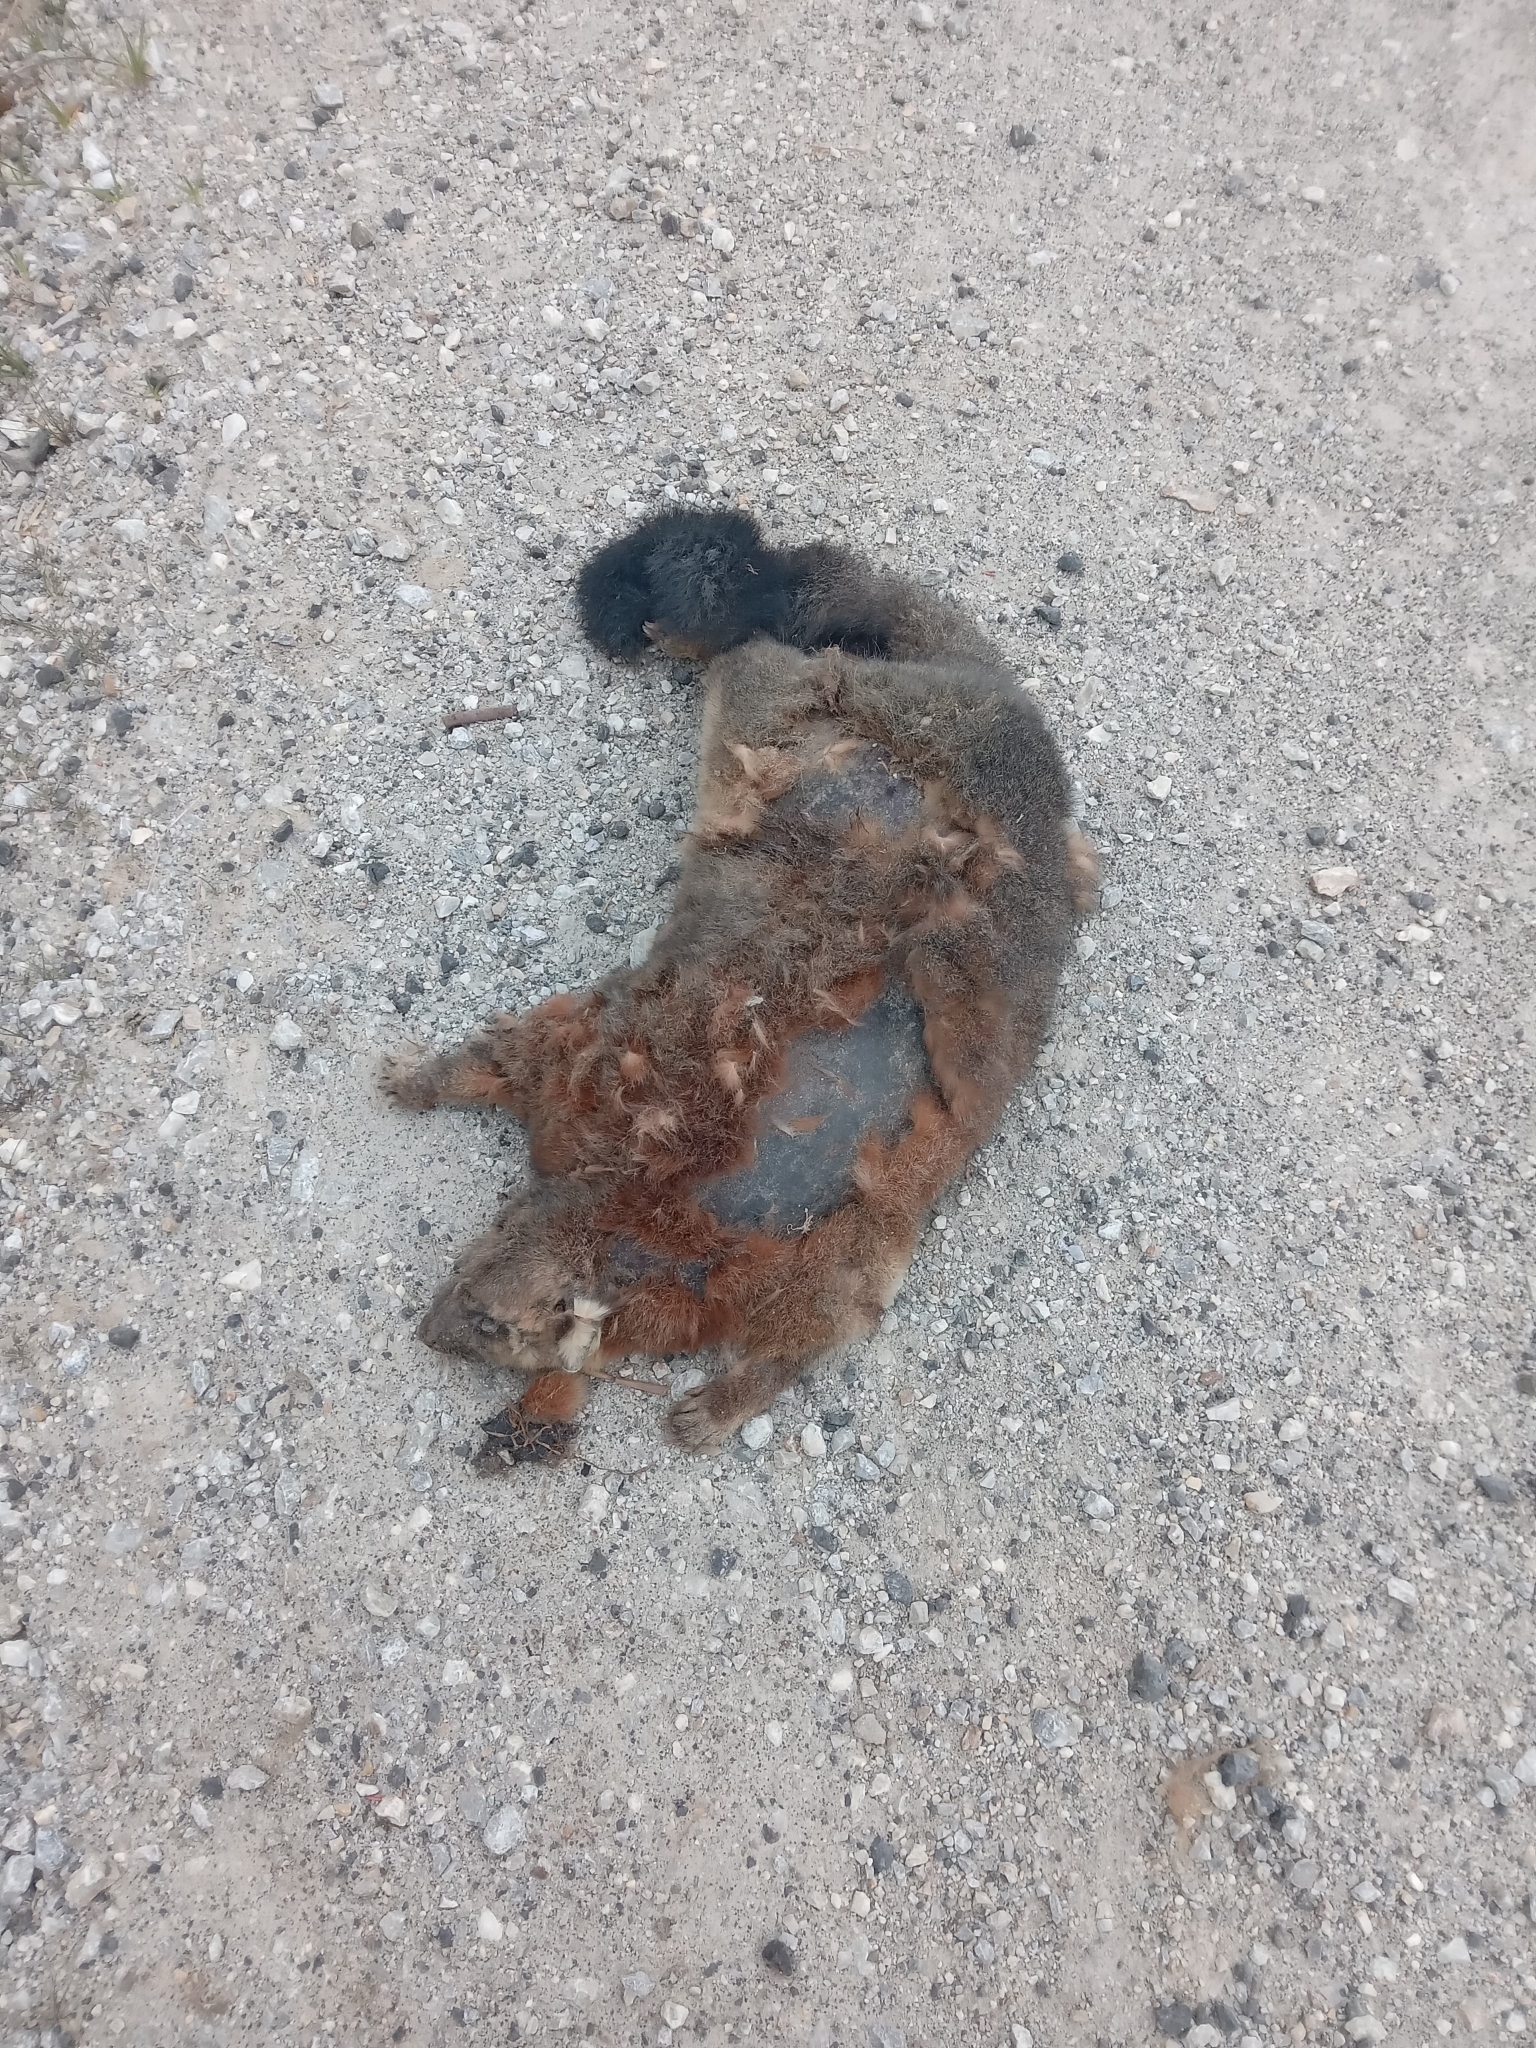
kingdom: Animalia
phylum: Chordata
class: Mammalia
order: Diprotodontia
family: Phalangeridae
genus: Trichosurus
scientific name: Trichosurus vulpecula
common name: Common brushtail
